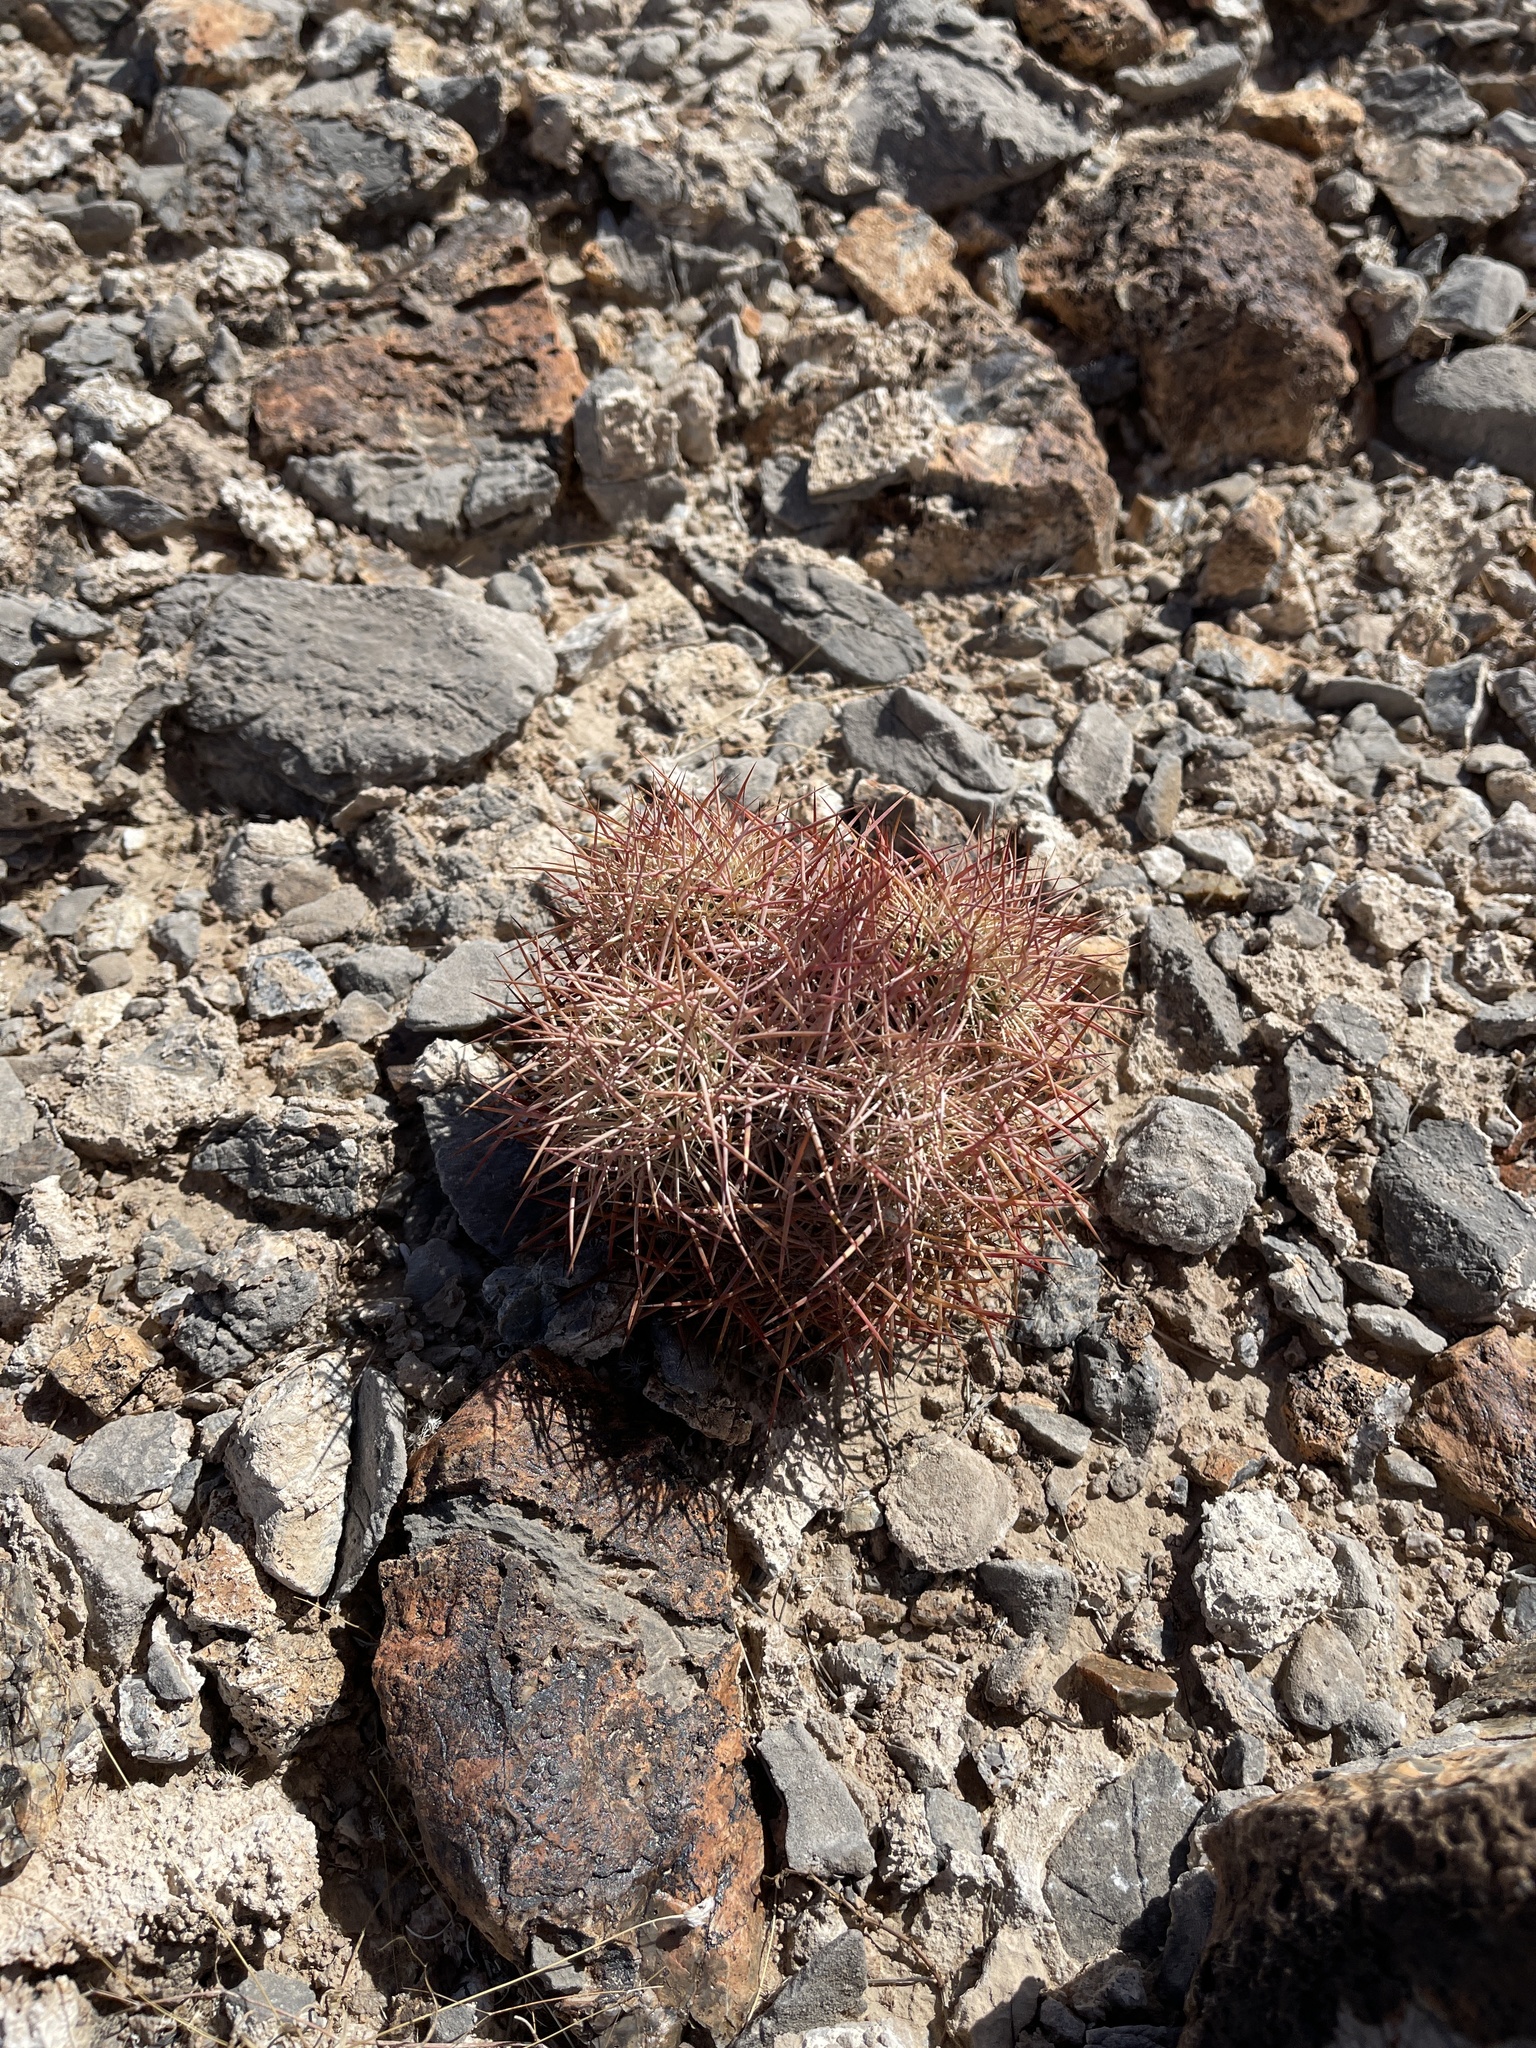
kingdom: Plantae
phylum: Tracheophyta
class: Magnoliopsida
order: Caryophyllales
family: Cactaceae
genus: Sclerocactus
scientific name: Sclerocactus johnsonii
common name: Eight-spine fishhook cactus
